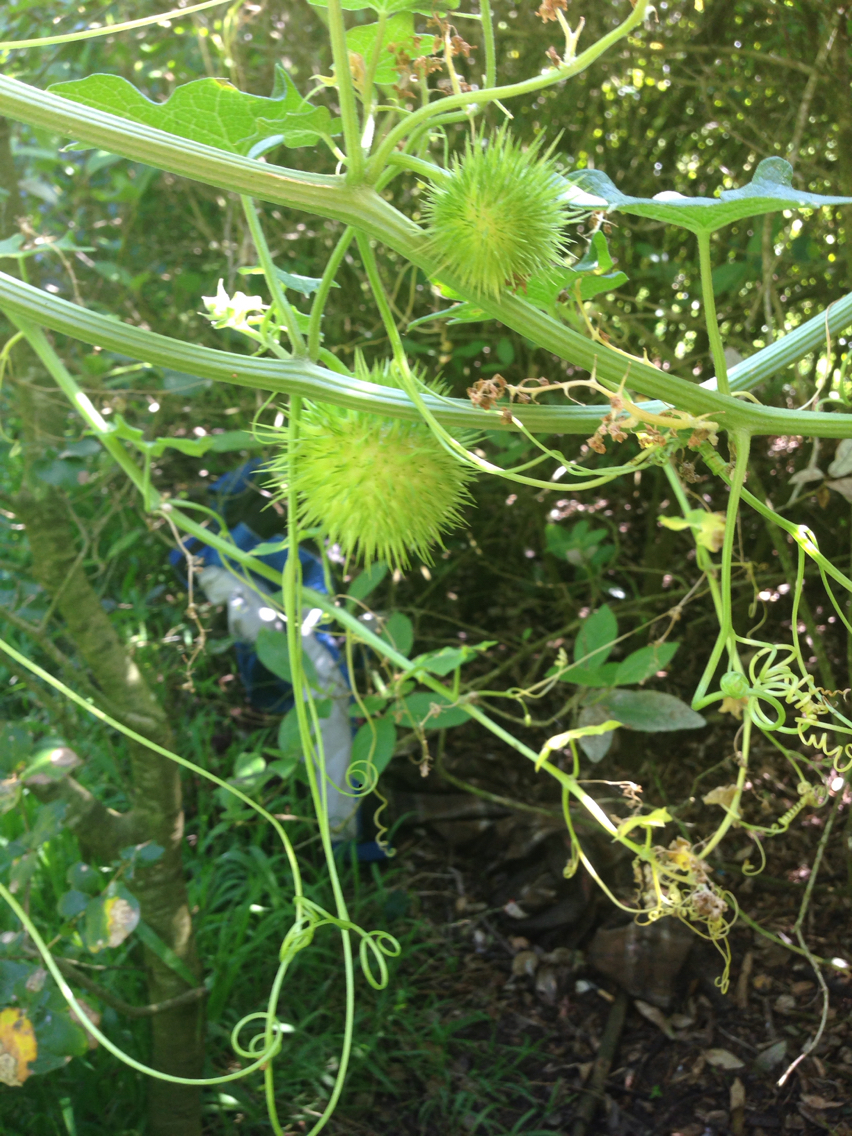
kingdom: Plantae
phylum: Tracheophyta
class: Magnoliopsida
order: Cucurbitales
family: Cucurbitaceae
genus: Marah
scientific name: Marah fabacea
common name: California manroot
